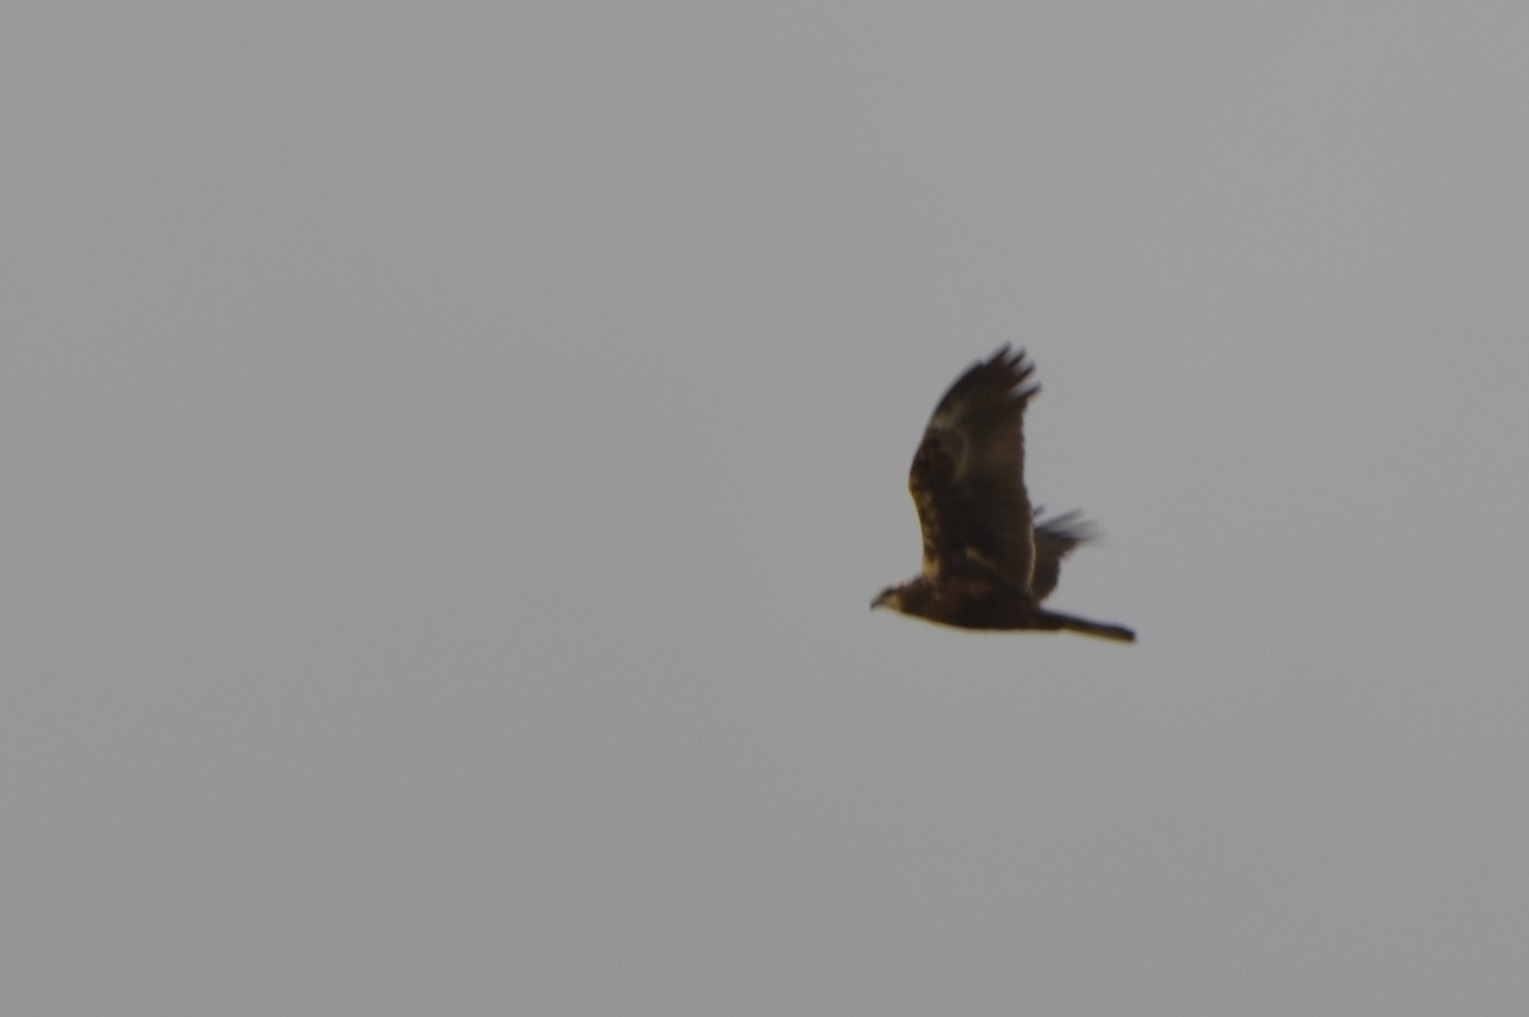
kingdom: Animalia
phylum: Chordata
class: Aves
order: Accipitriformes
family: Accipitridae
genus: Circus
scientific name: Circus aeruginosus
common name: Western marsh harrier
